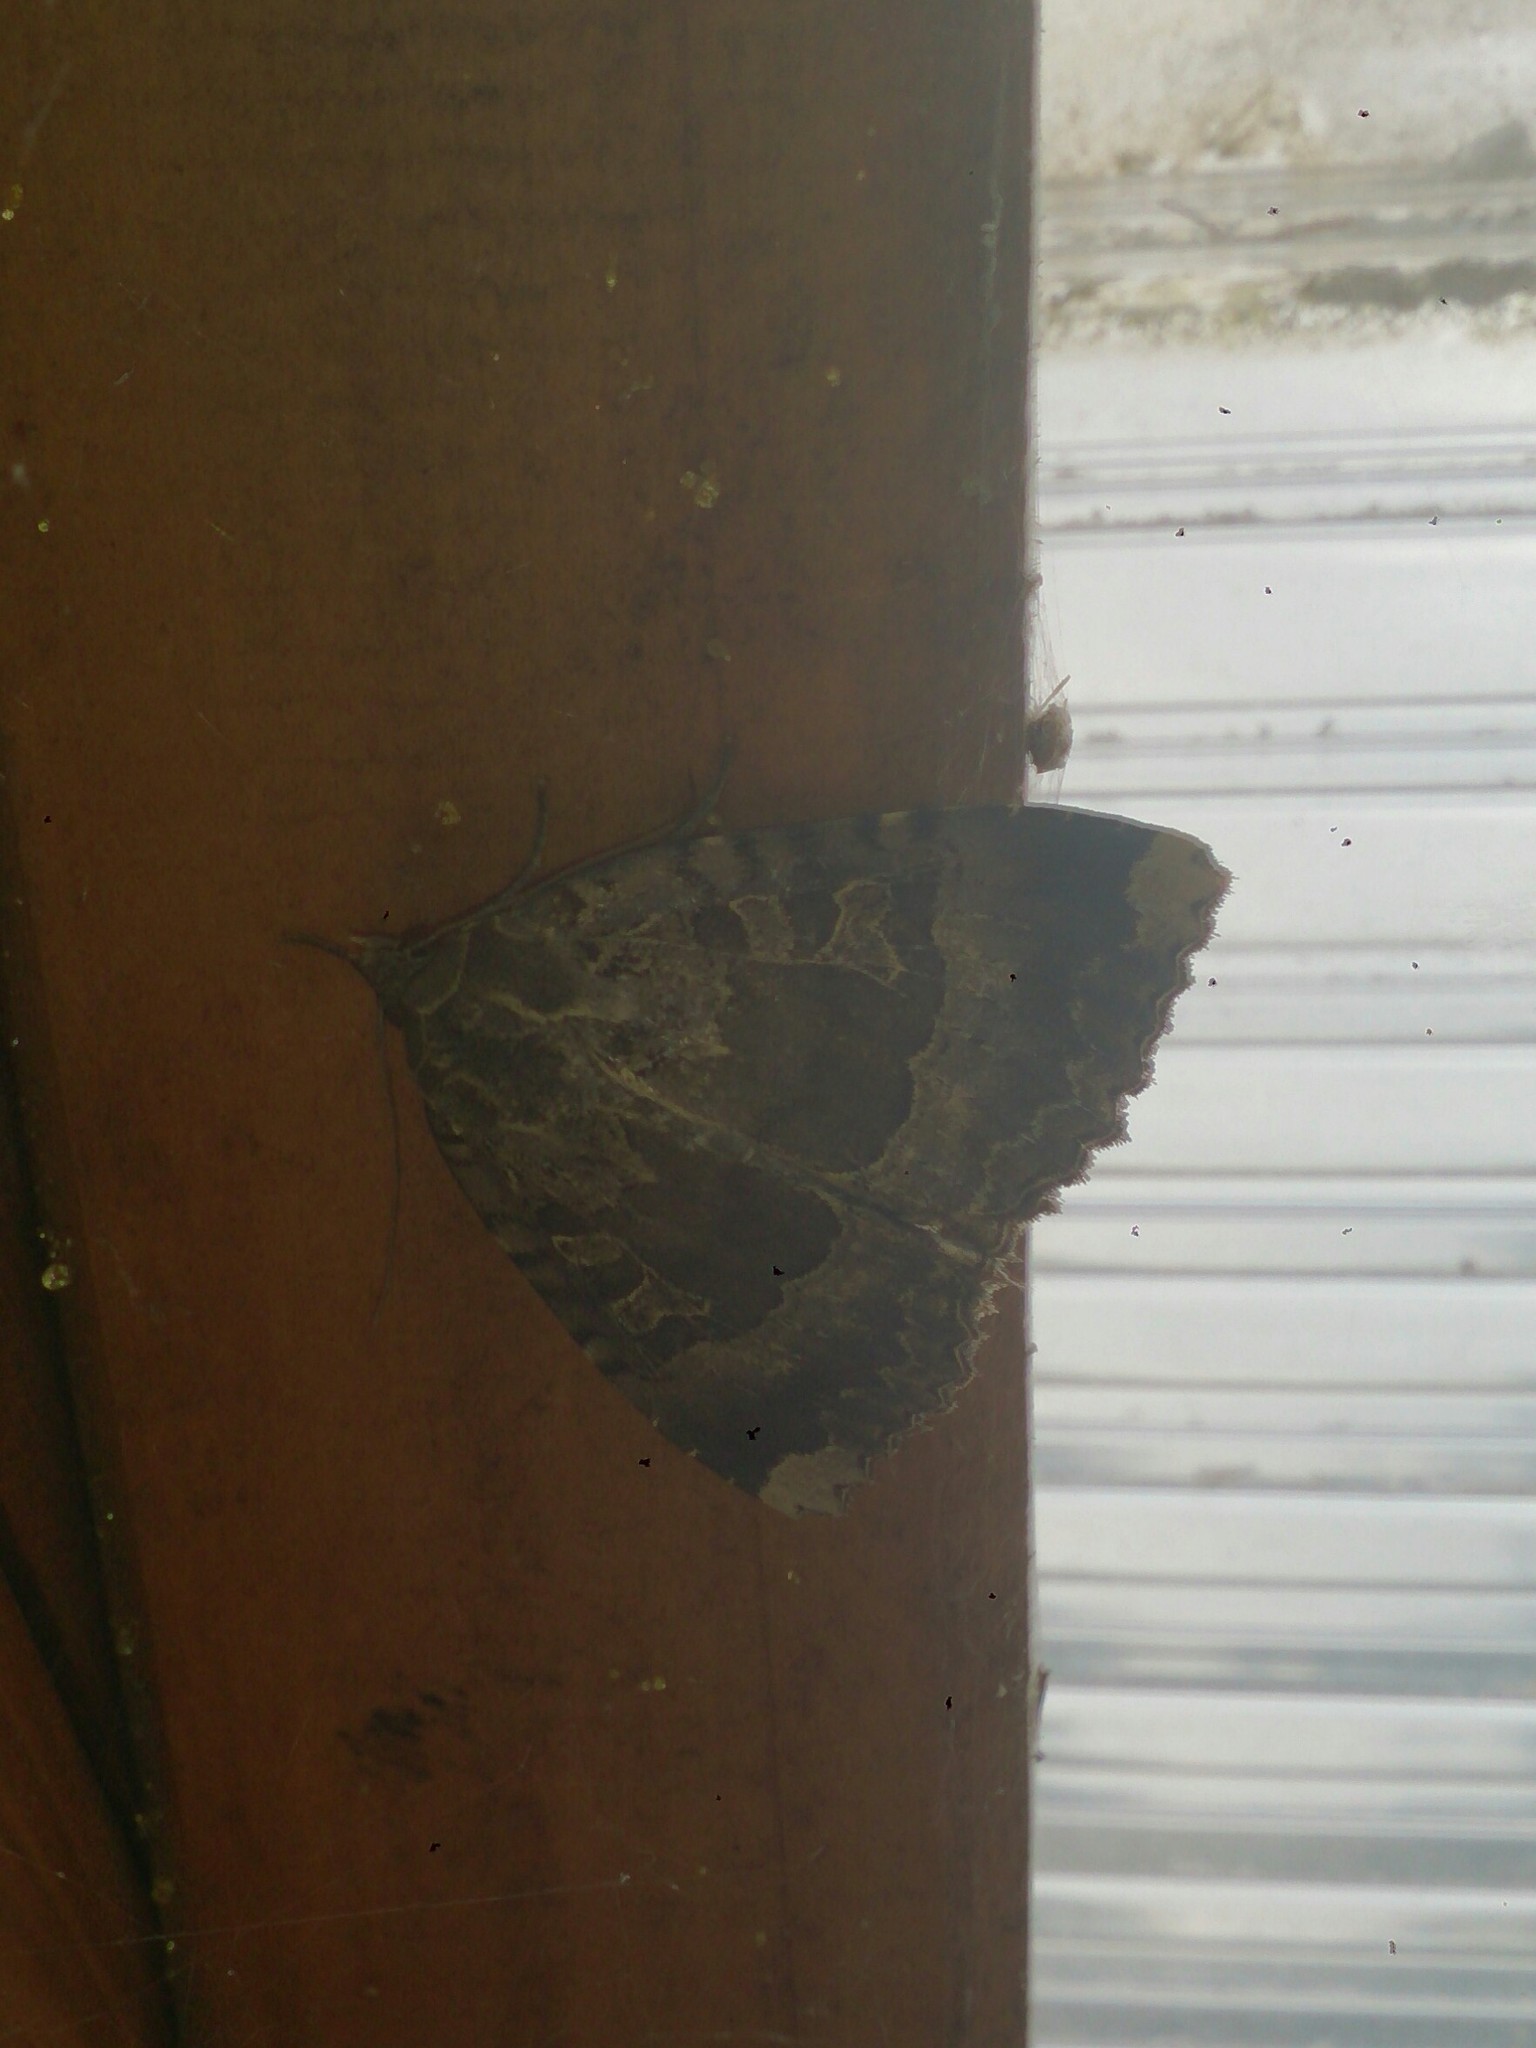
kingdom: Animalia
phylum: Arthropoda
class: Insecta
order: Lepidoptera
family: Noctuidae
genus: Mormo
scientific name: Mormo maura
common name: Old lady
